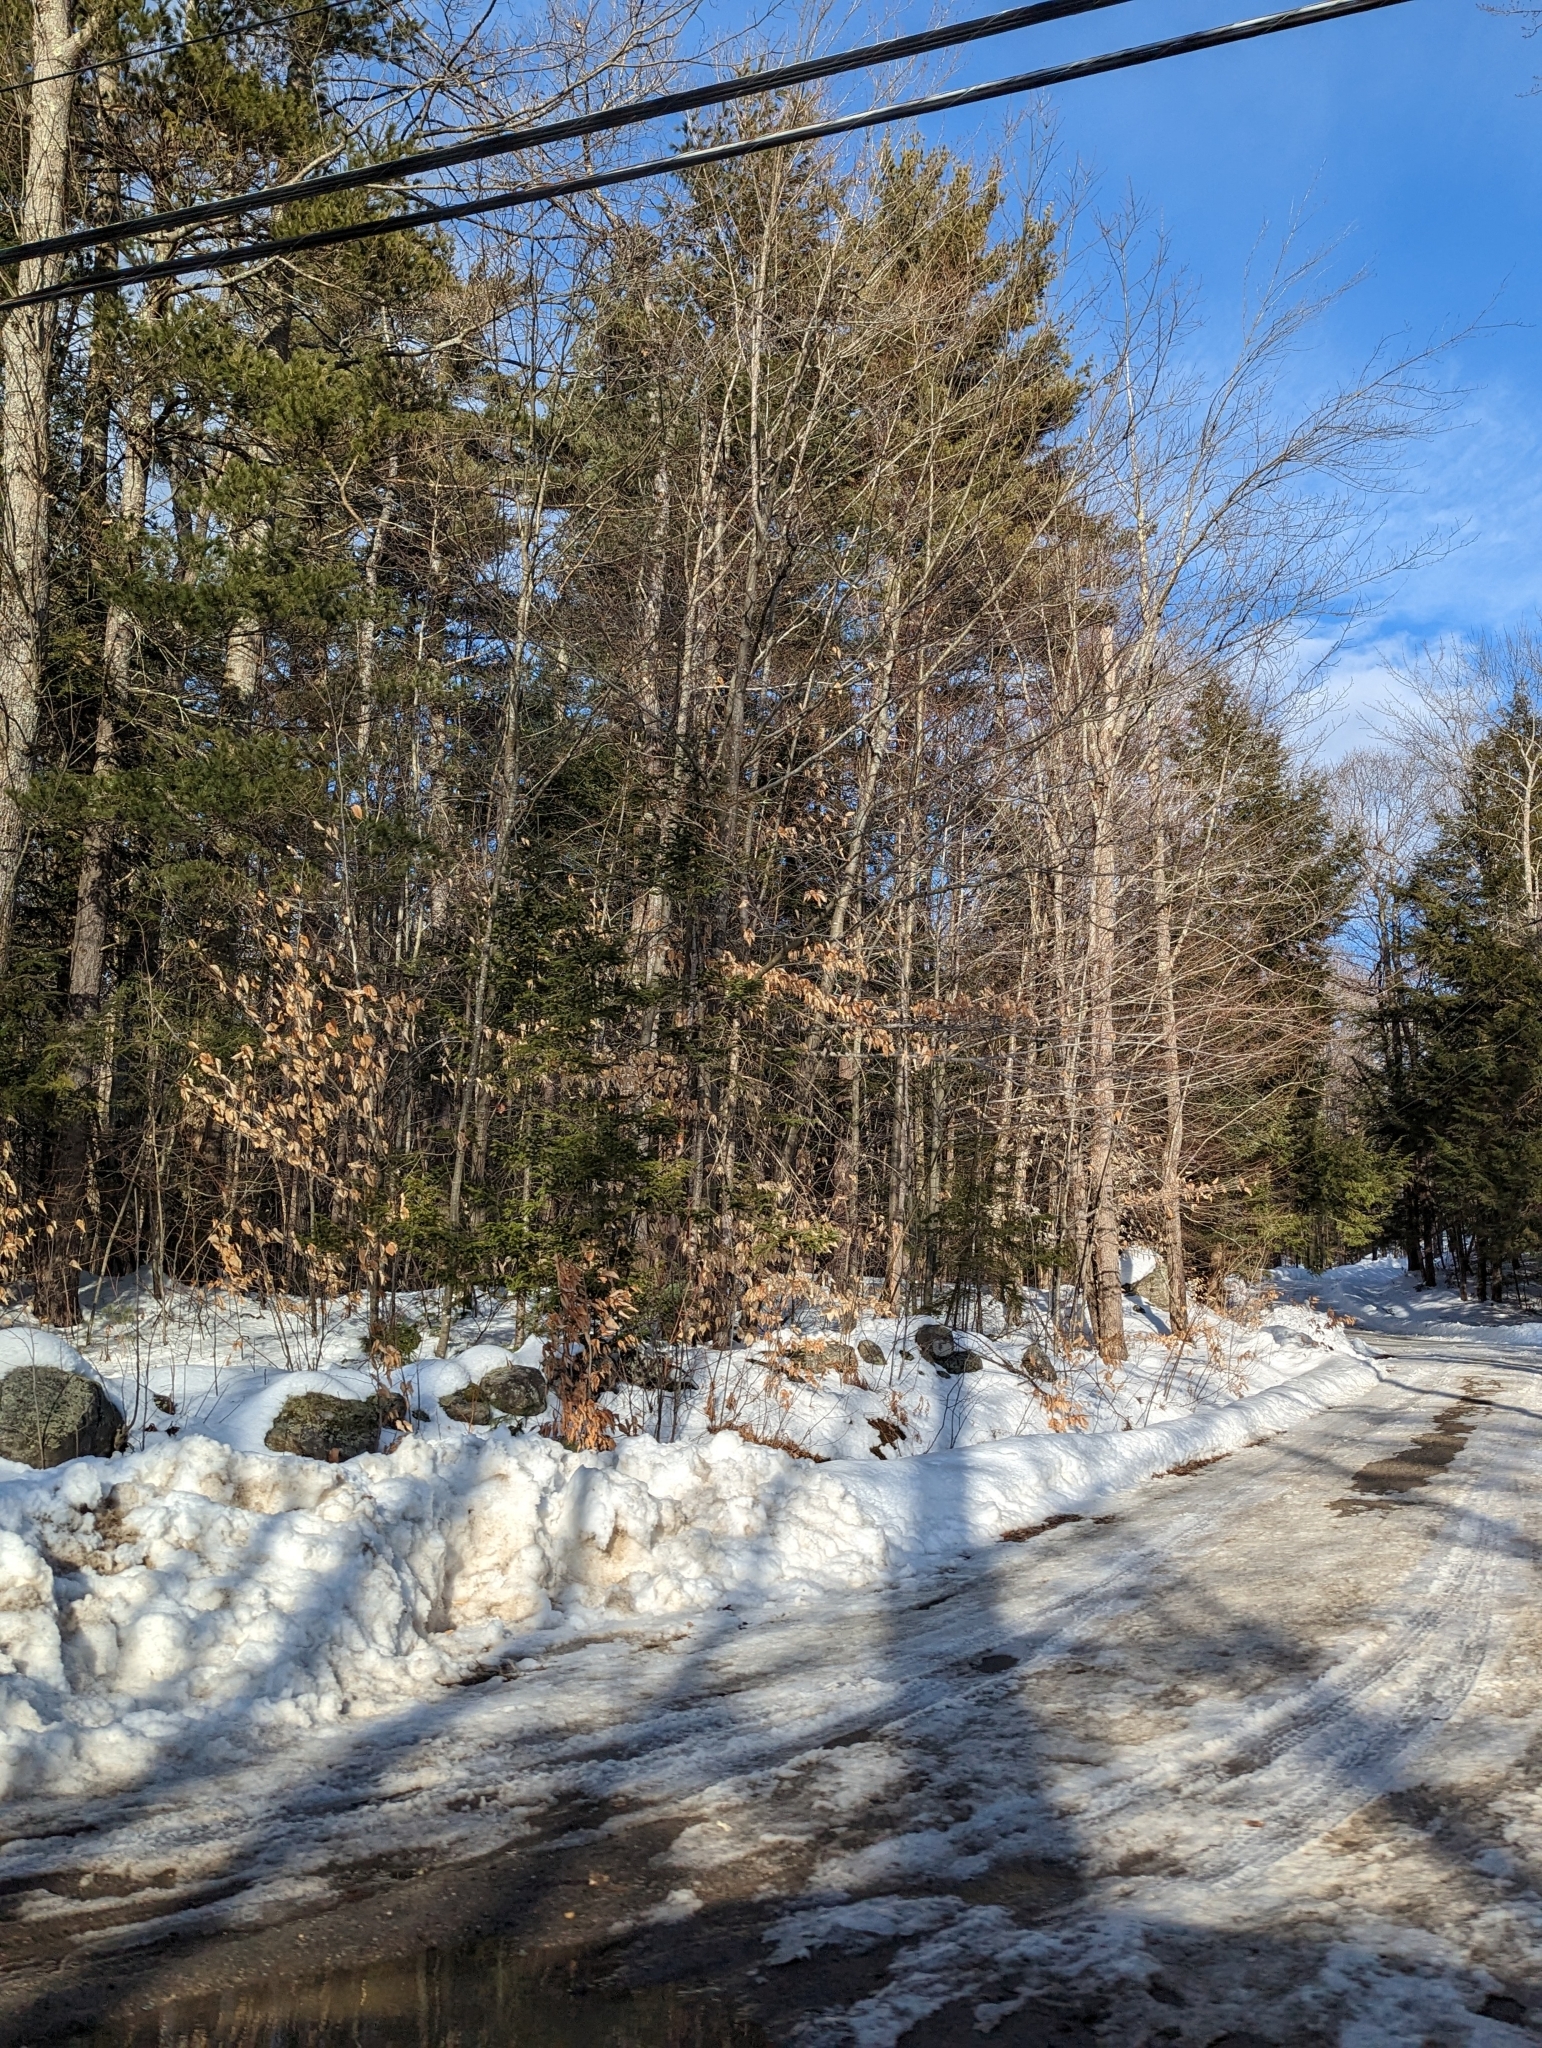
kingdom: Plantae
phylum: Tracheophyta
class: Magnoliopsida
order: Fagales
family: Fagaceae
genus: Fagus
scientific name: Fagus grandifolia
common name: American beech
